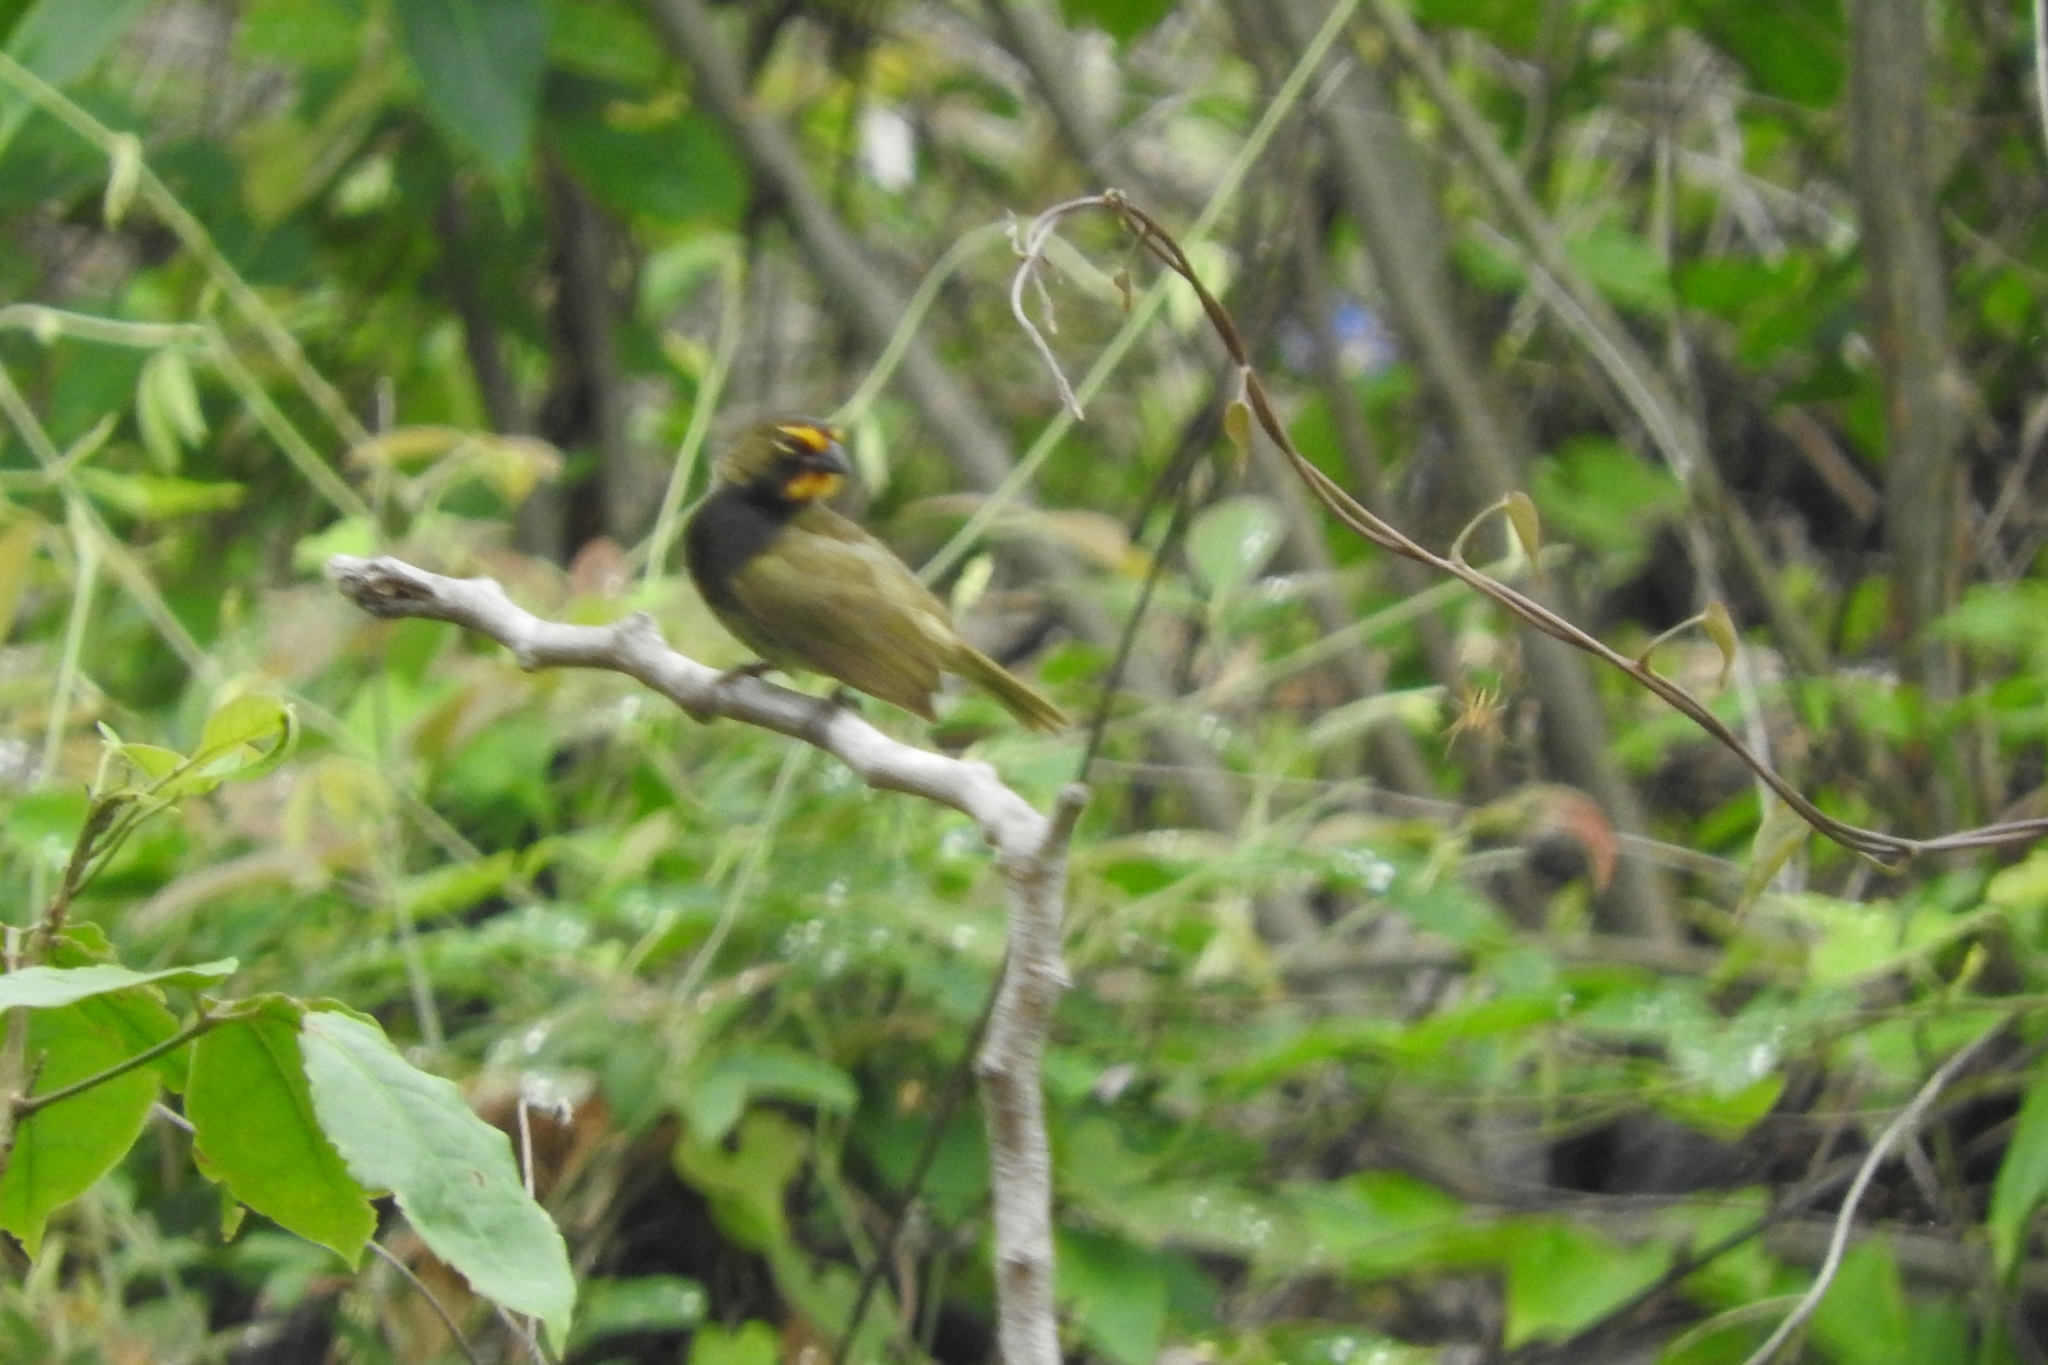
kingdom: Animalia
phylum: Chordata
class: Aves
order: Passeriformes
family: Thraupidae
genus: Tiaris
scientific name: Tiaris olivaceus
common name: Yellow-faced grassquit
